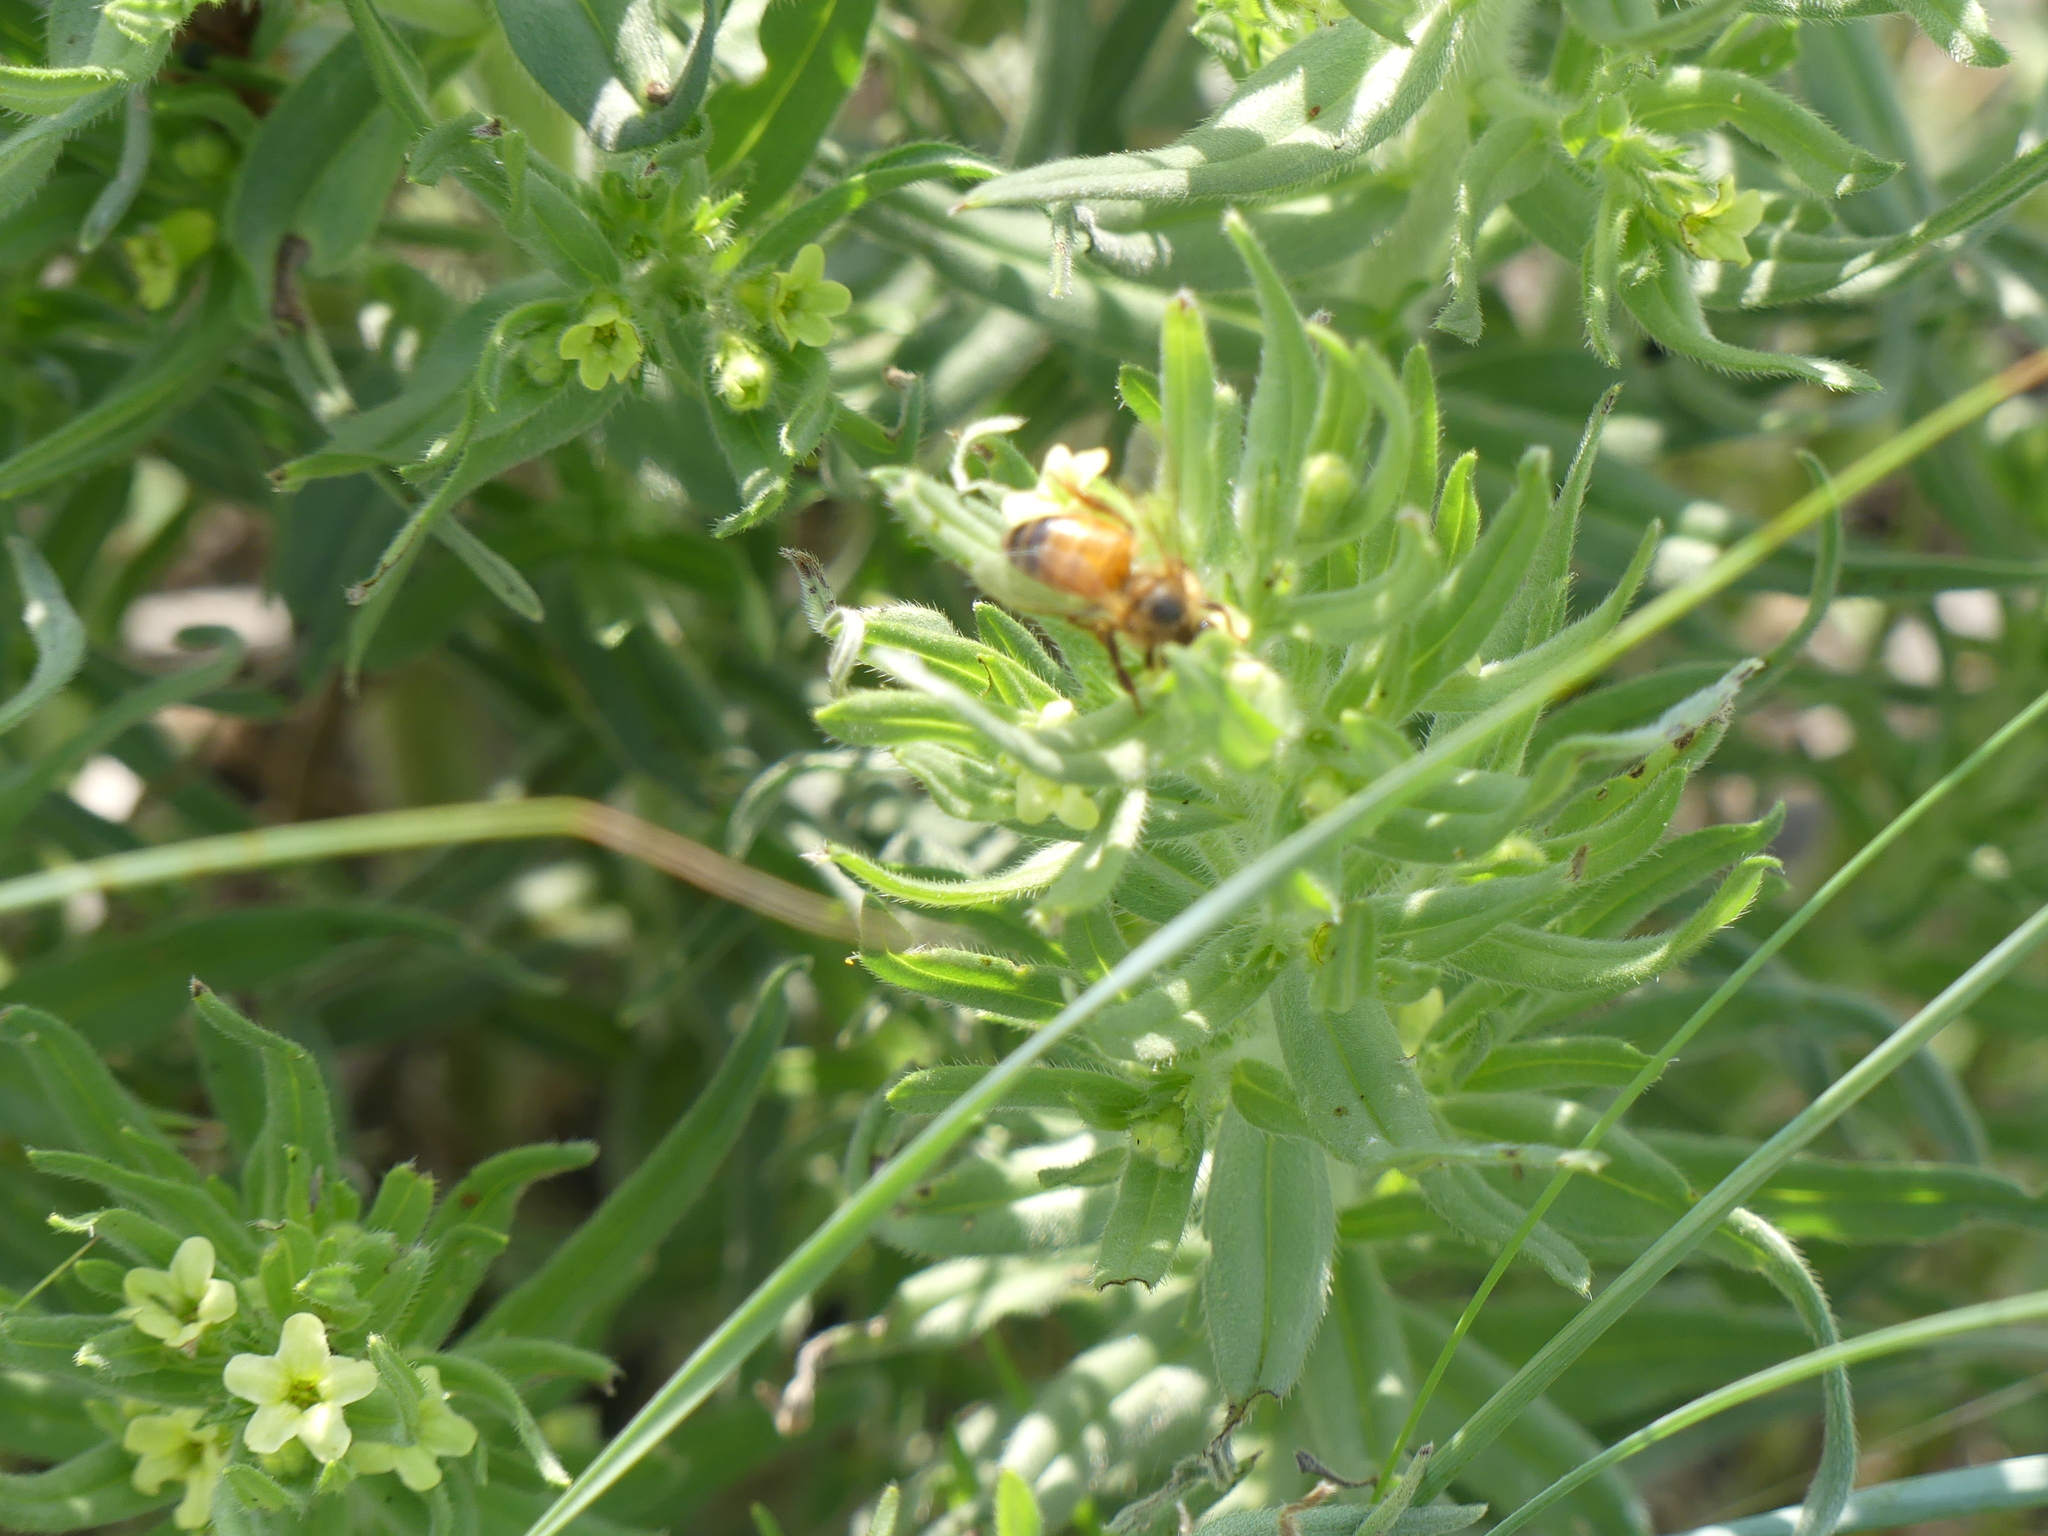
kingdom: Animalia
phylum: Arthropoda
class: Insecta
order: Hymenoptera
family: Apidae
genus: Apis
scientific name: Apis mellifera
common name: Honey bee
